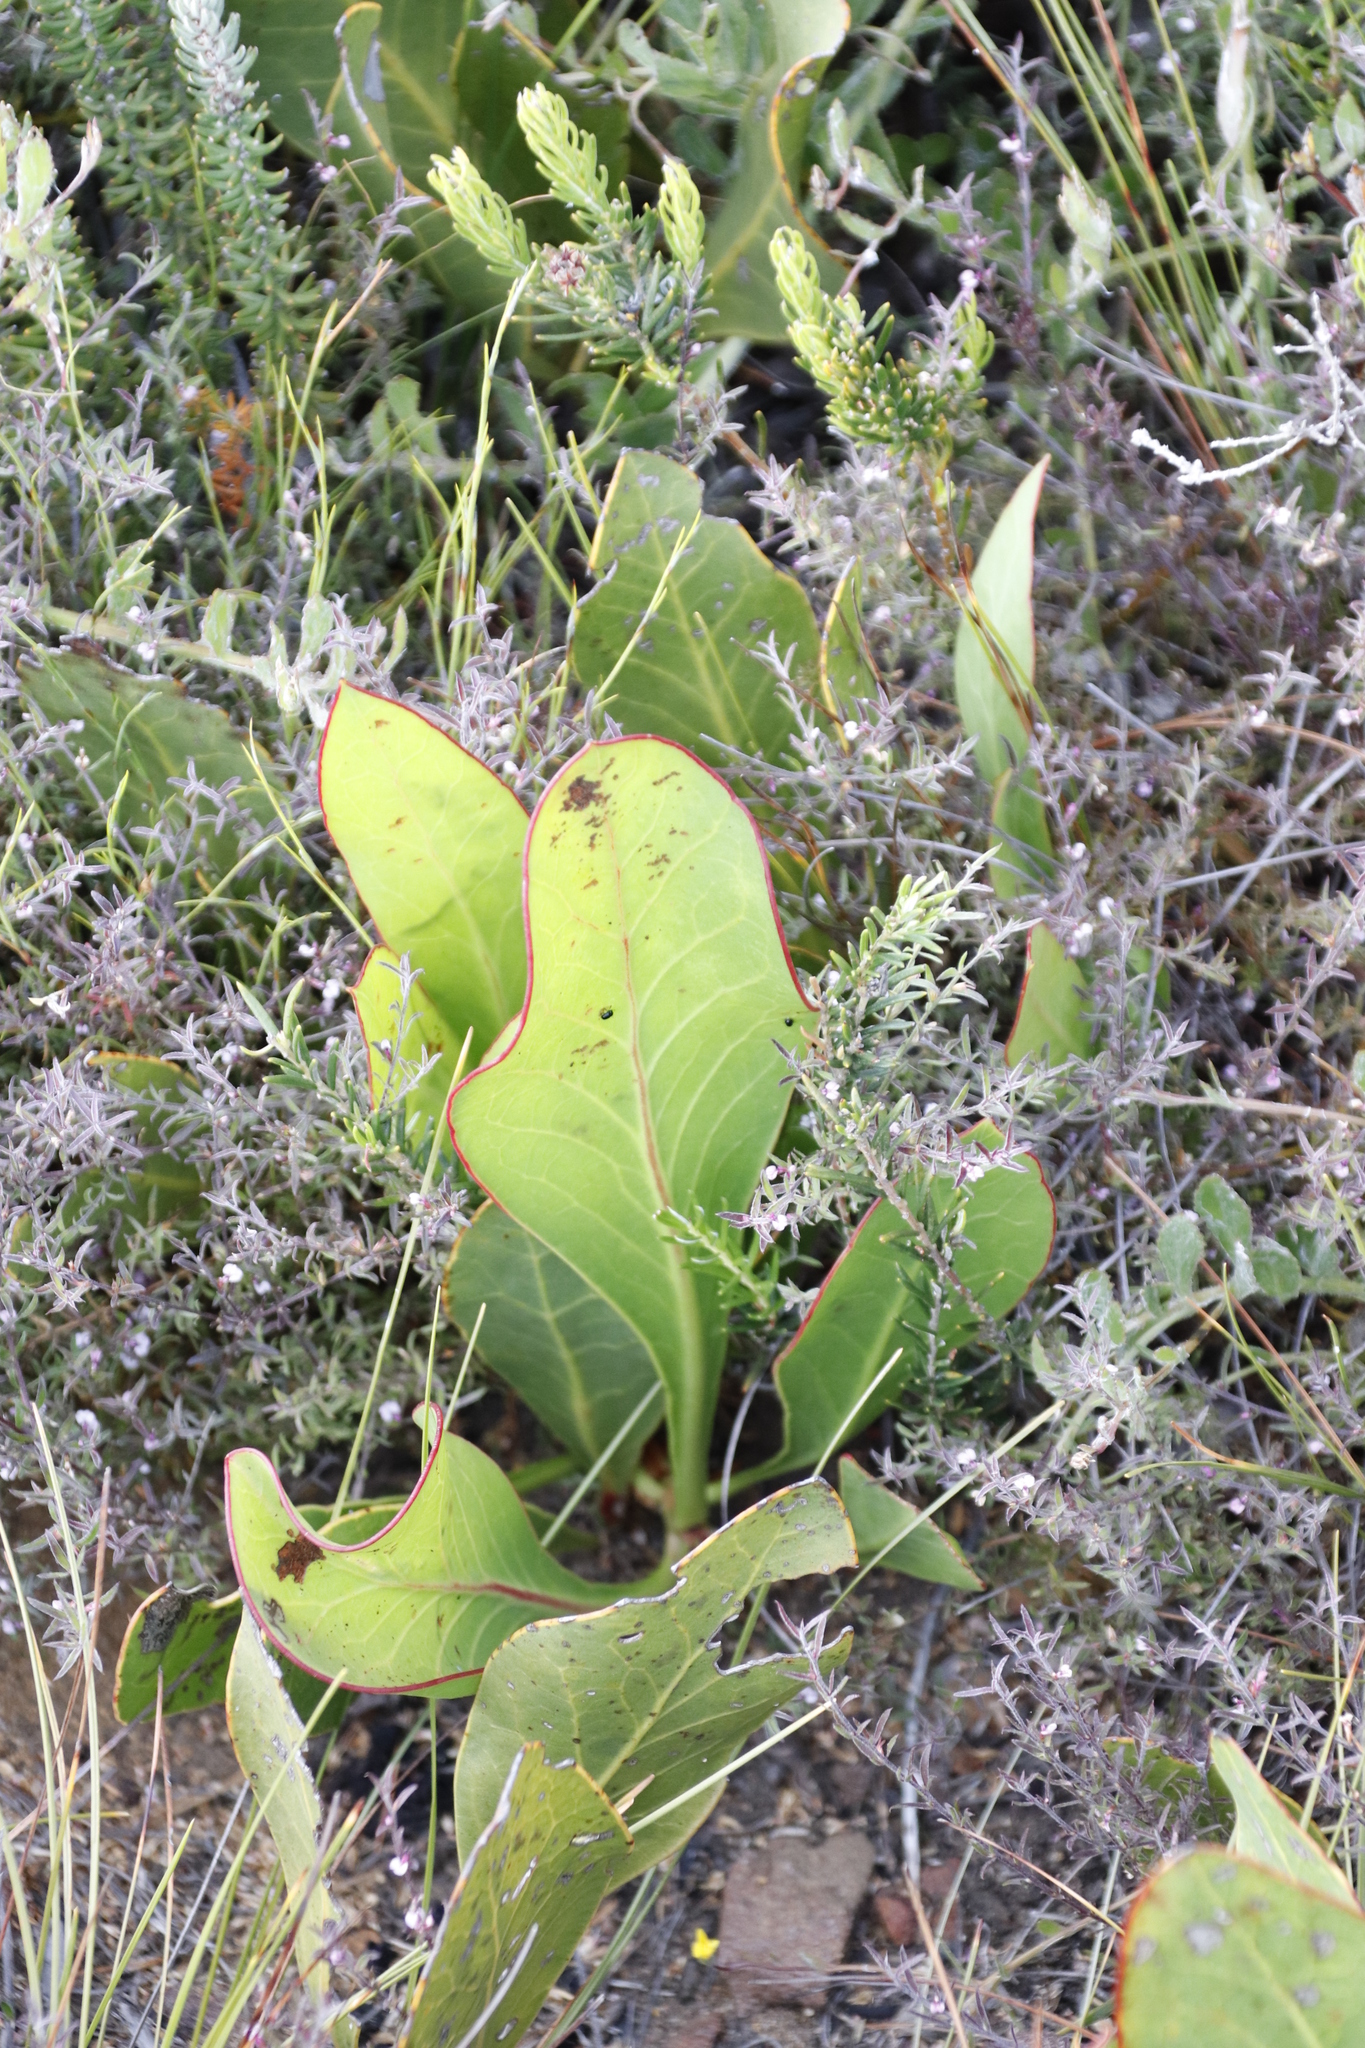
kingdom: Plantae
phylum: Tracheophyta
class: Magnoliopsida
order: Proteales
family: Proteaceae
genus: Protea
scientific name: Protea acaulos
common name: Common ground sugarbush
